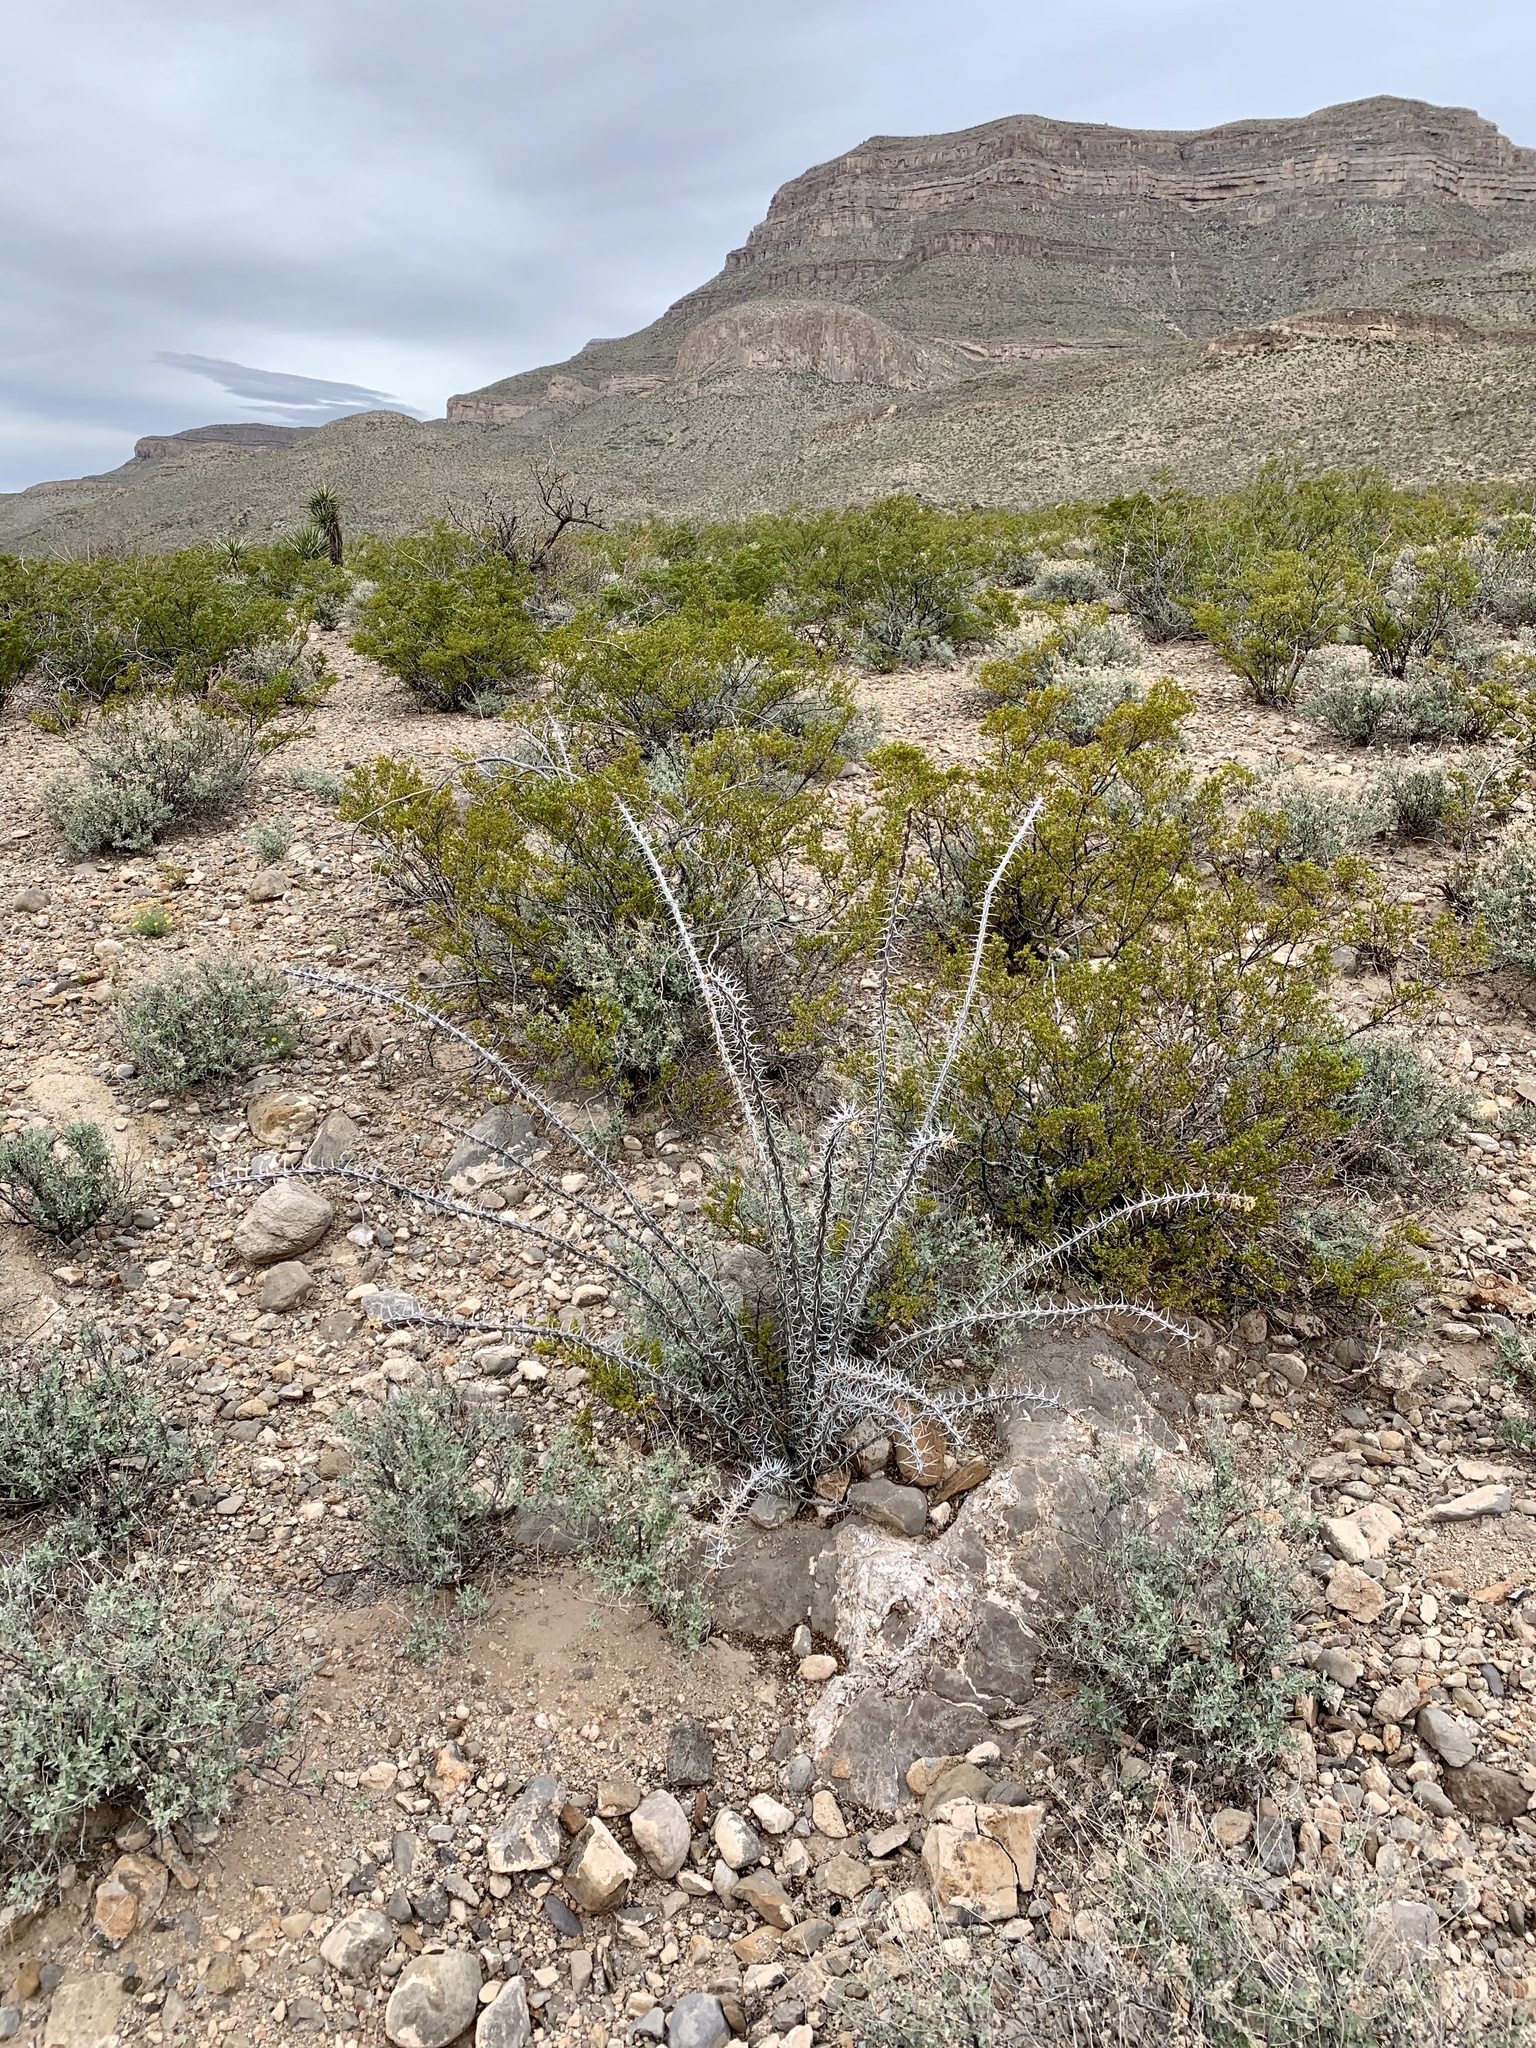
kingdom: Plantae
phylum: Tracheophyta
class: Magnoliopsida
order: Ericales
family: Fouquieriaceae
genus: Fouquieria
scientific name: Fouquieria splendens
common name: Vine-cactus
